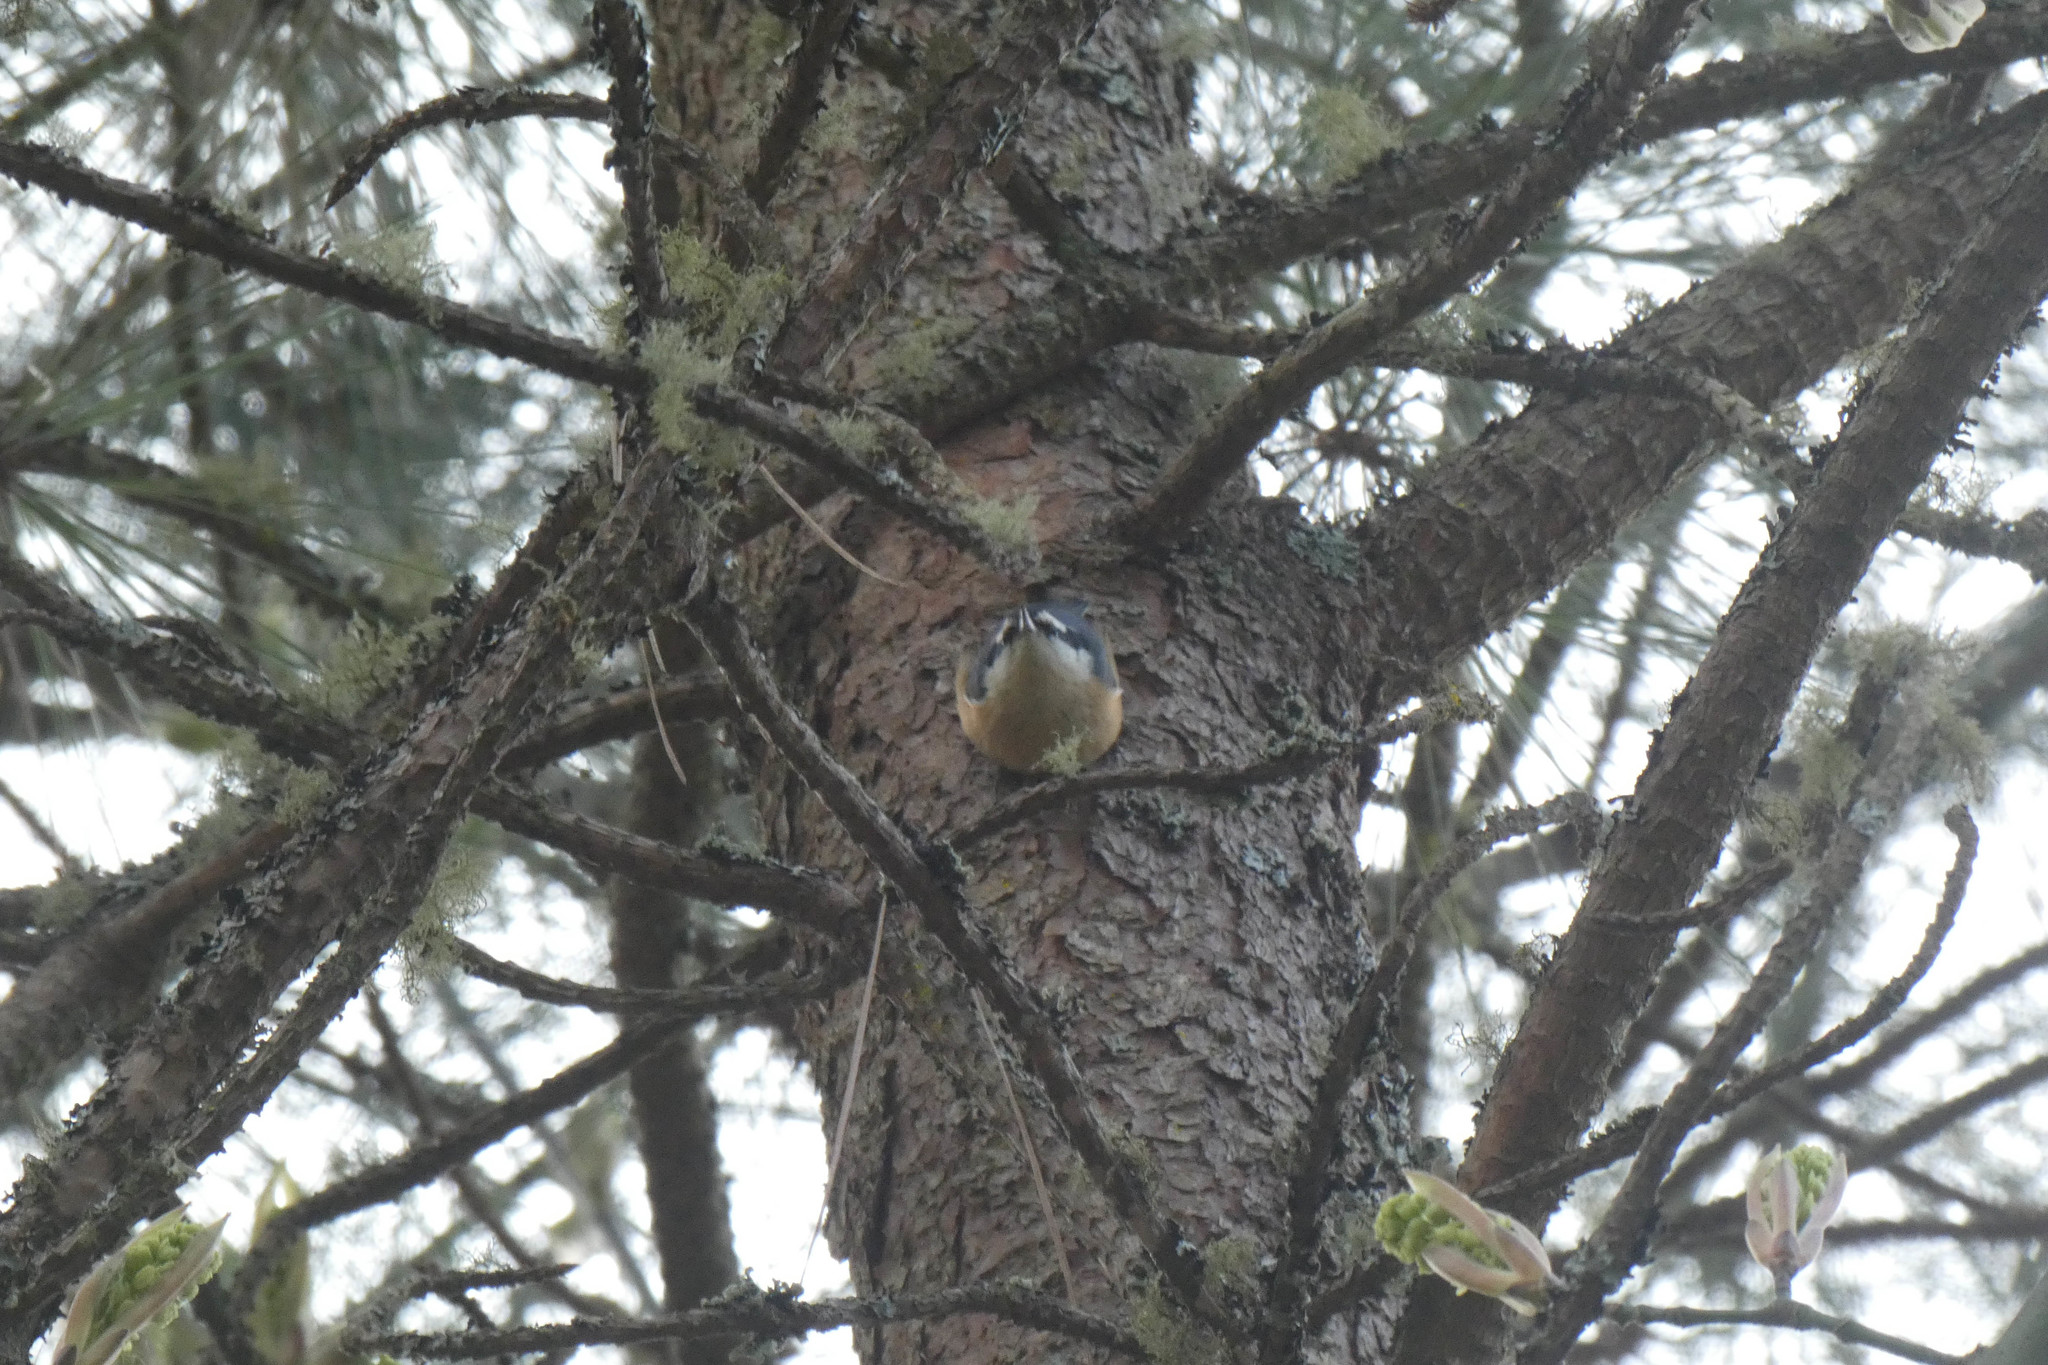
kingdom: Animalia
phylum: Chordata
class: Aves
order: Passeriformes
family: Sittidae
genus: Sitta
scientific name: Sitta canadensis
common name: Red-breasted nuthatch
